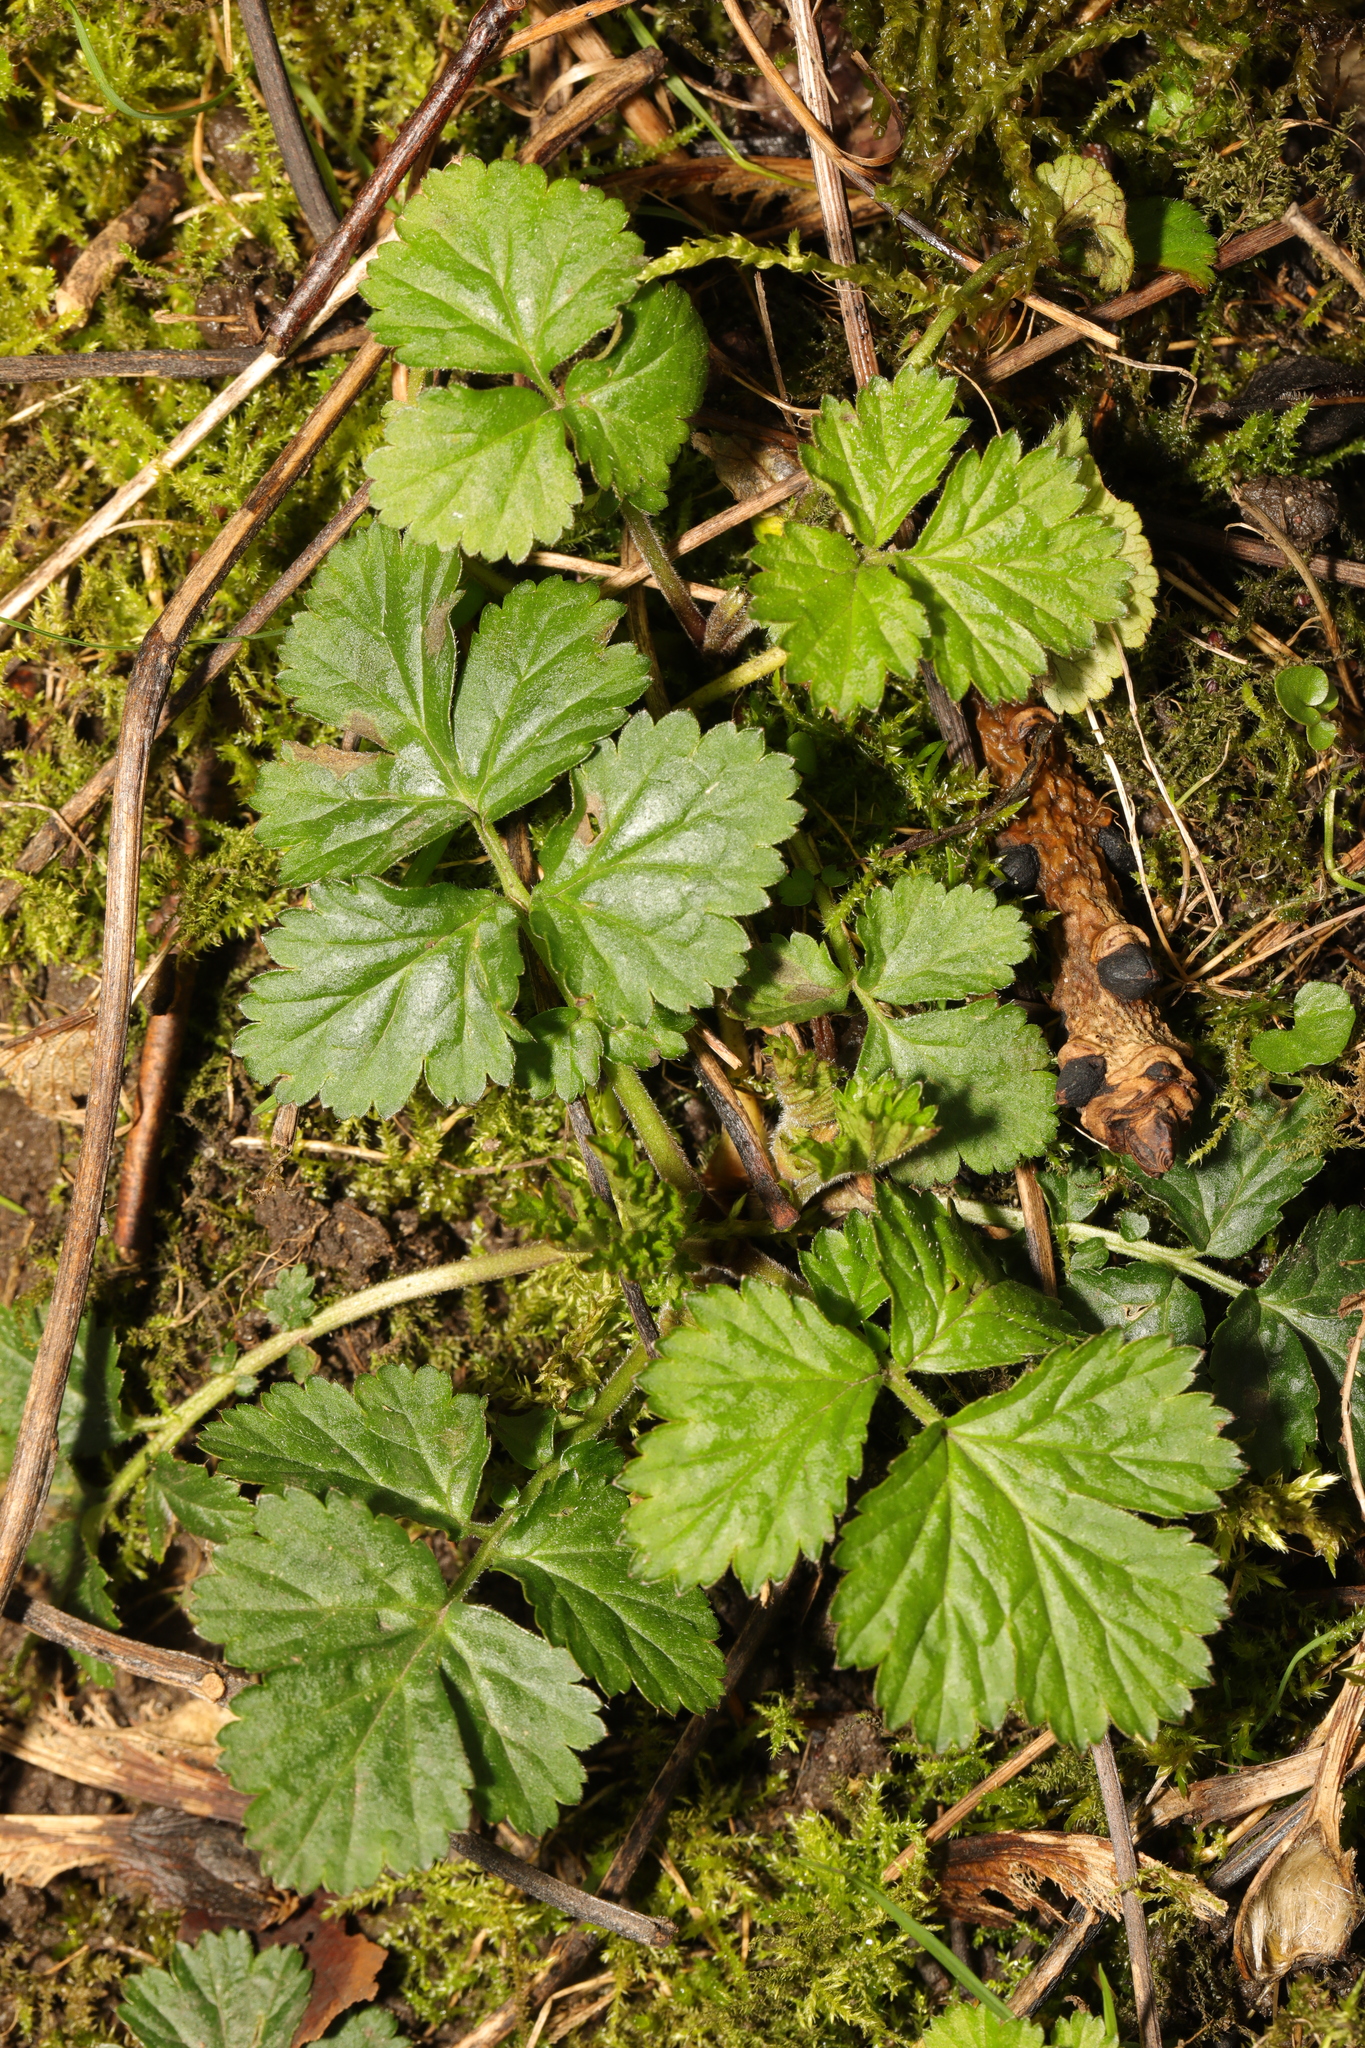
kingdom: Plantae
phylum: Tracheophyta
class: Magnoliopsida
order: Rosales
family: Rosaceae
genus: Geum
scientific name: Geum urbanum
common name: Wood avens
